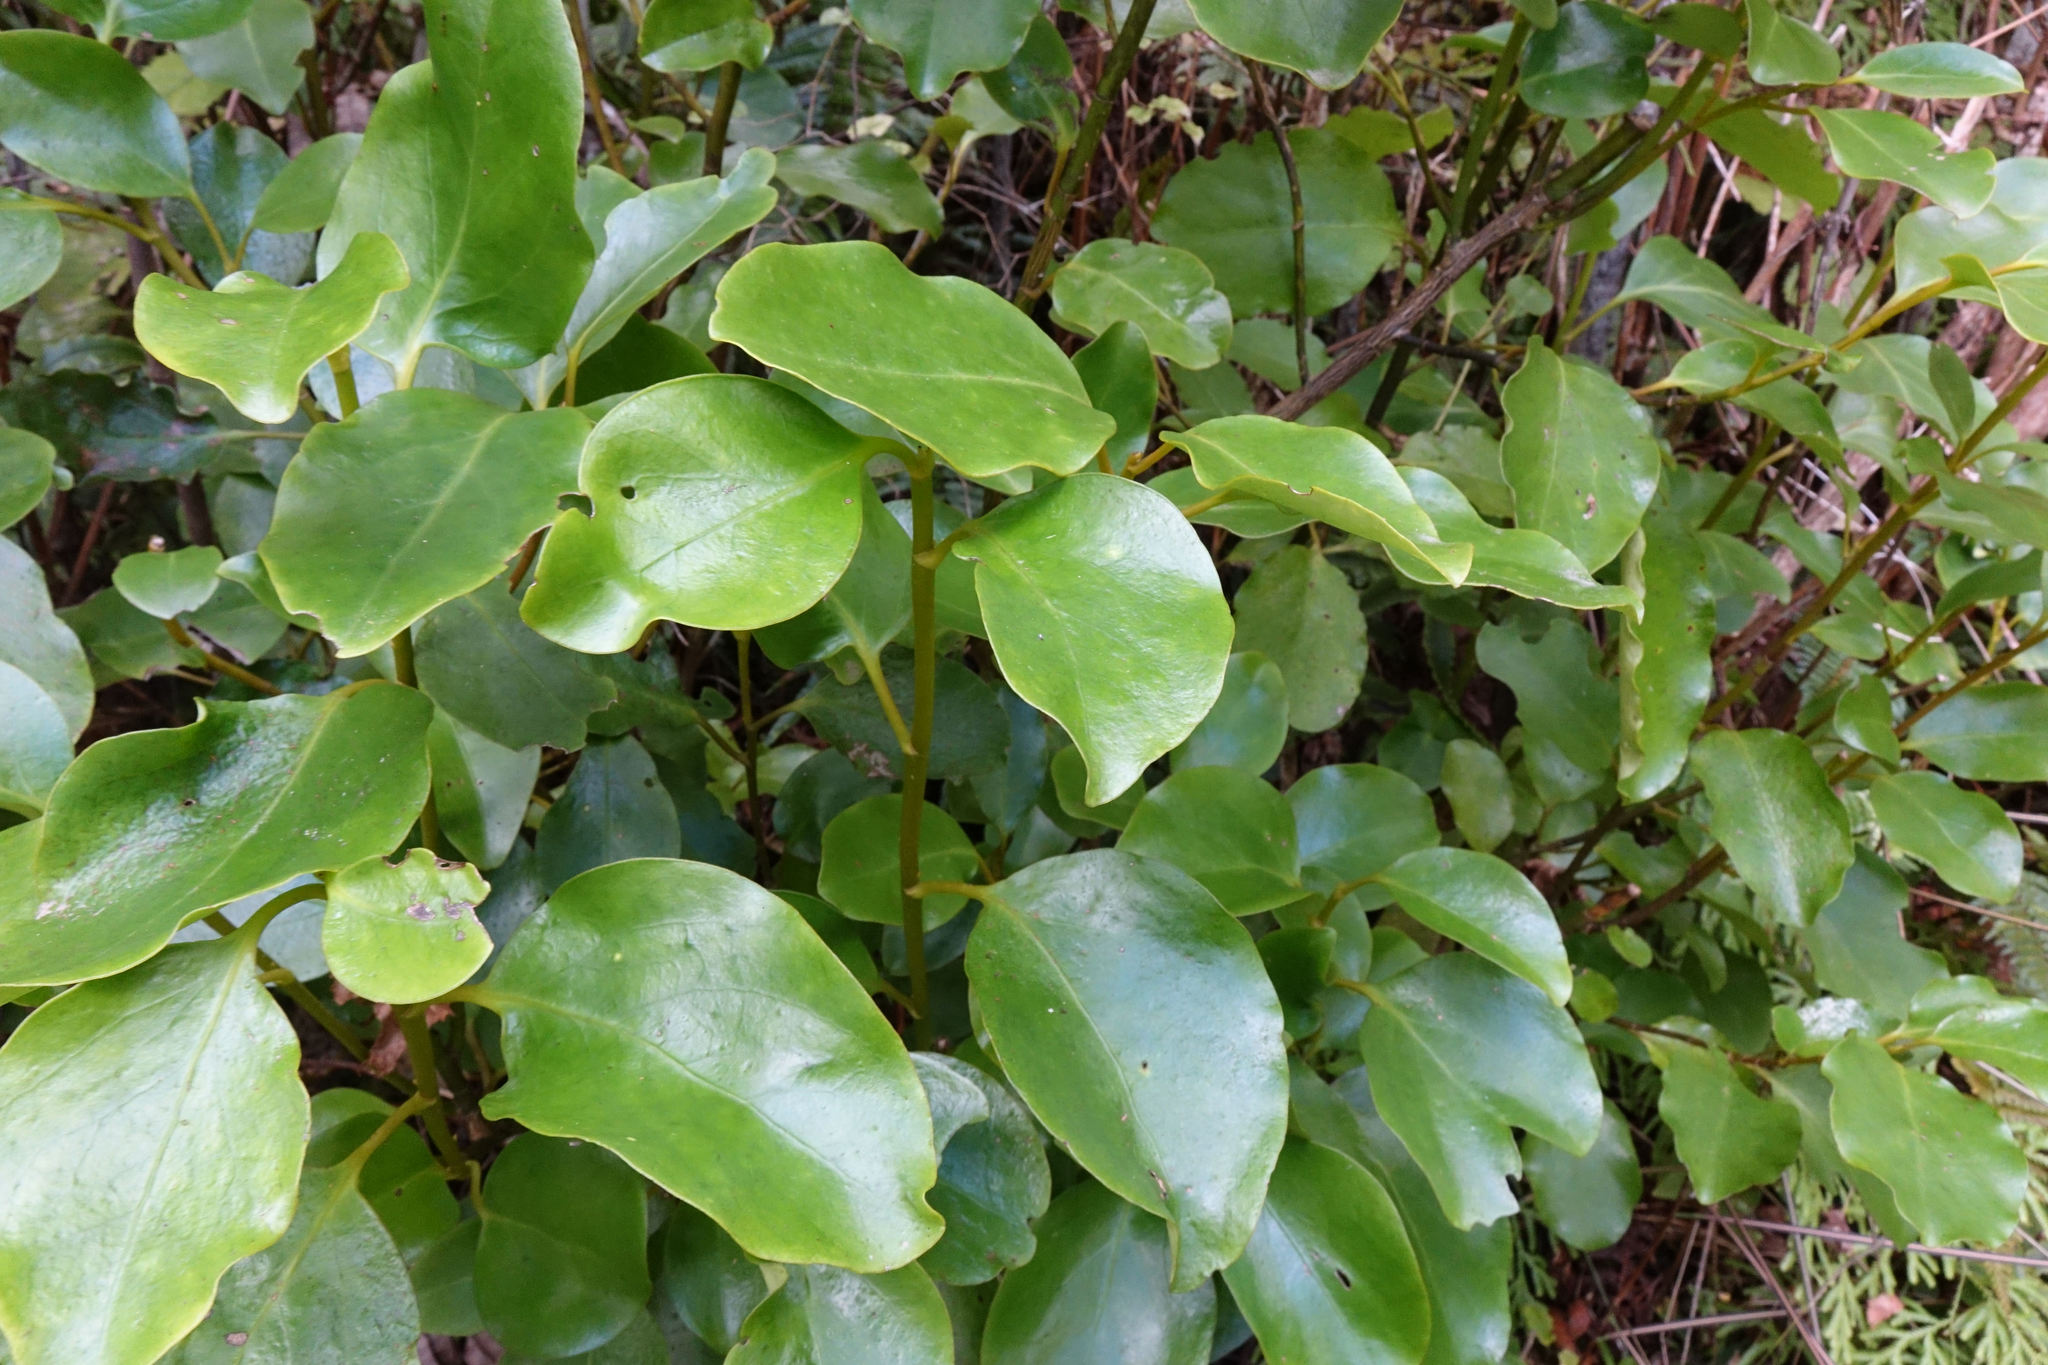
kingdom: Plantae
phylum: Tracheophyta
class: Magnoliopsida
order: Apiales
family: Griseliniaceae
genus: Griselinia
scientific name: Griselinia littoralis
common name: New zealand broadleaf
